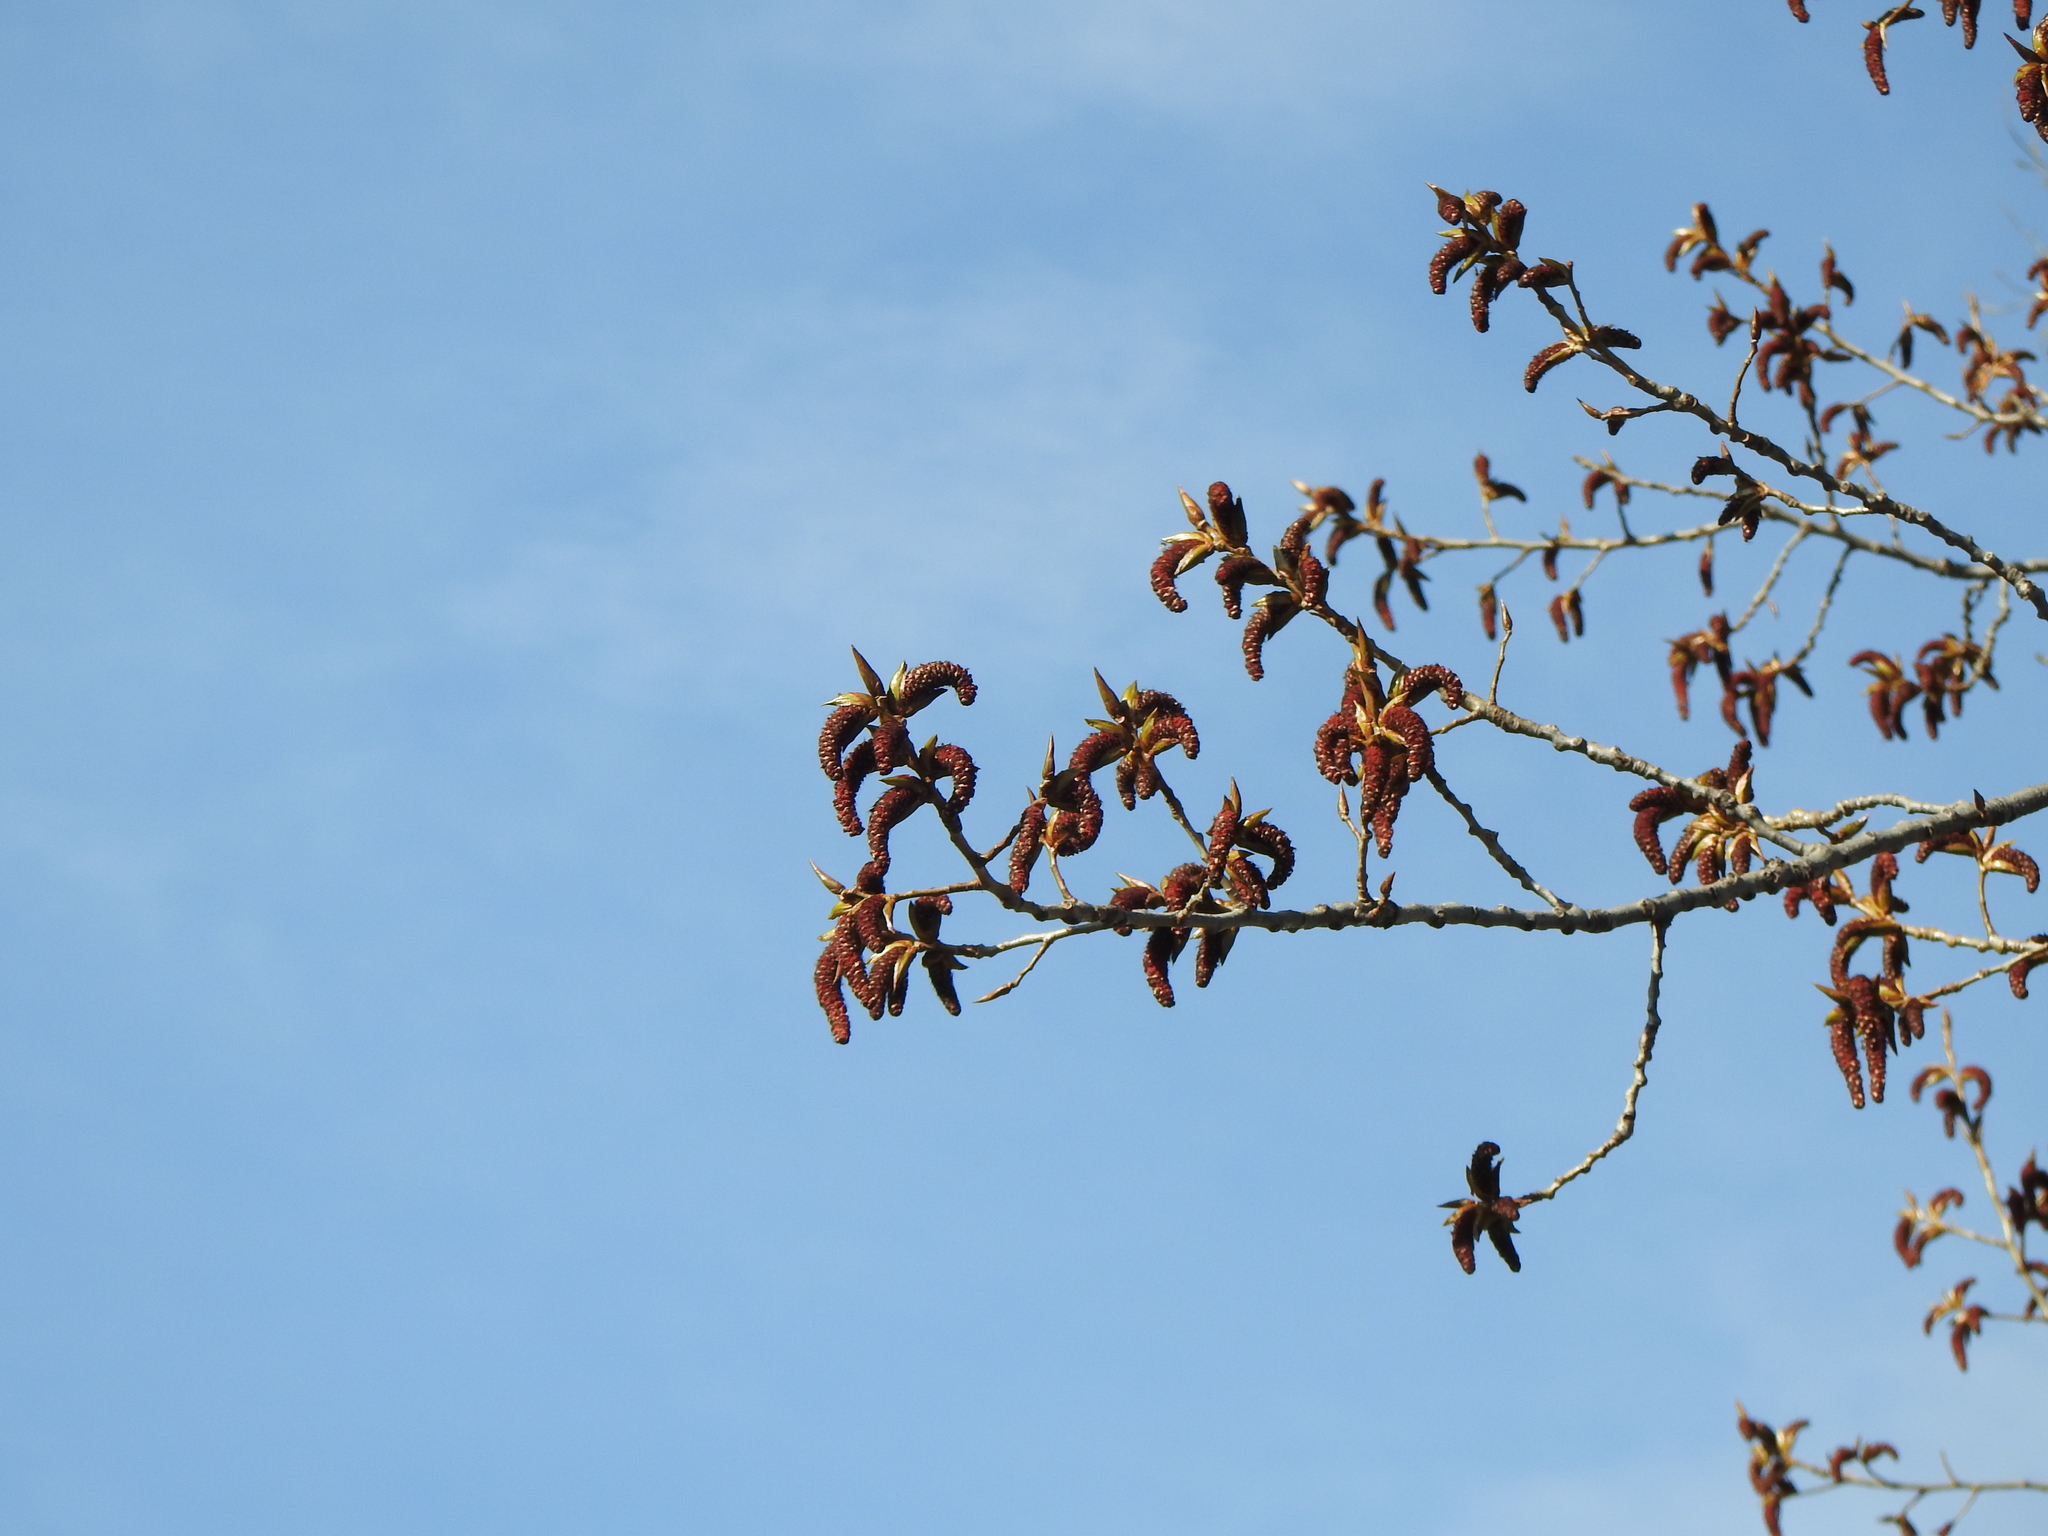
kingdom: Plantae
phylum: Tracheophyta
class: Magnoliopsida
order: Malpighiales
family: Salicaceae
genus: Populus
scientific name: Populus deltoides
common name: Eastern cottonwood
